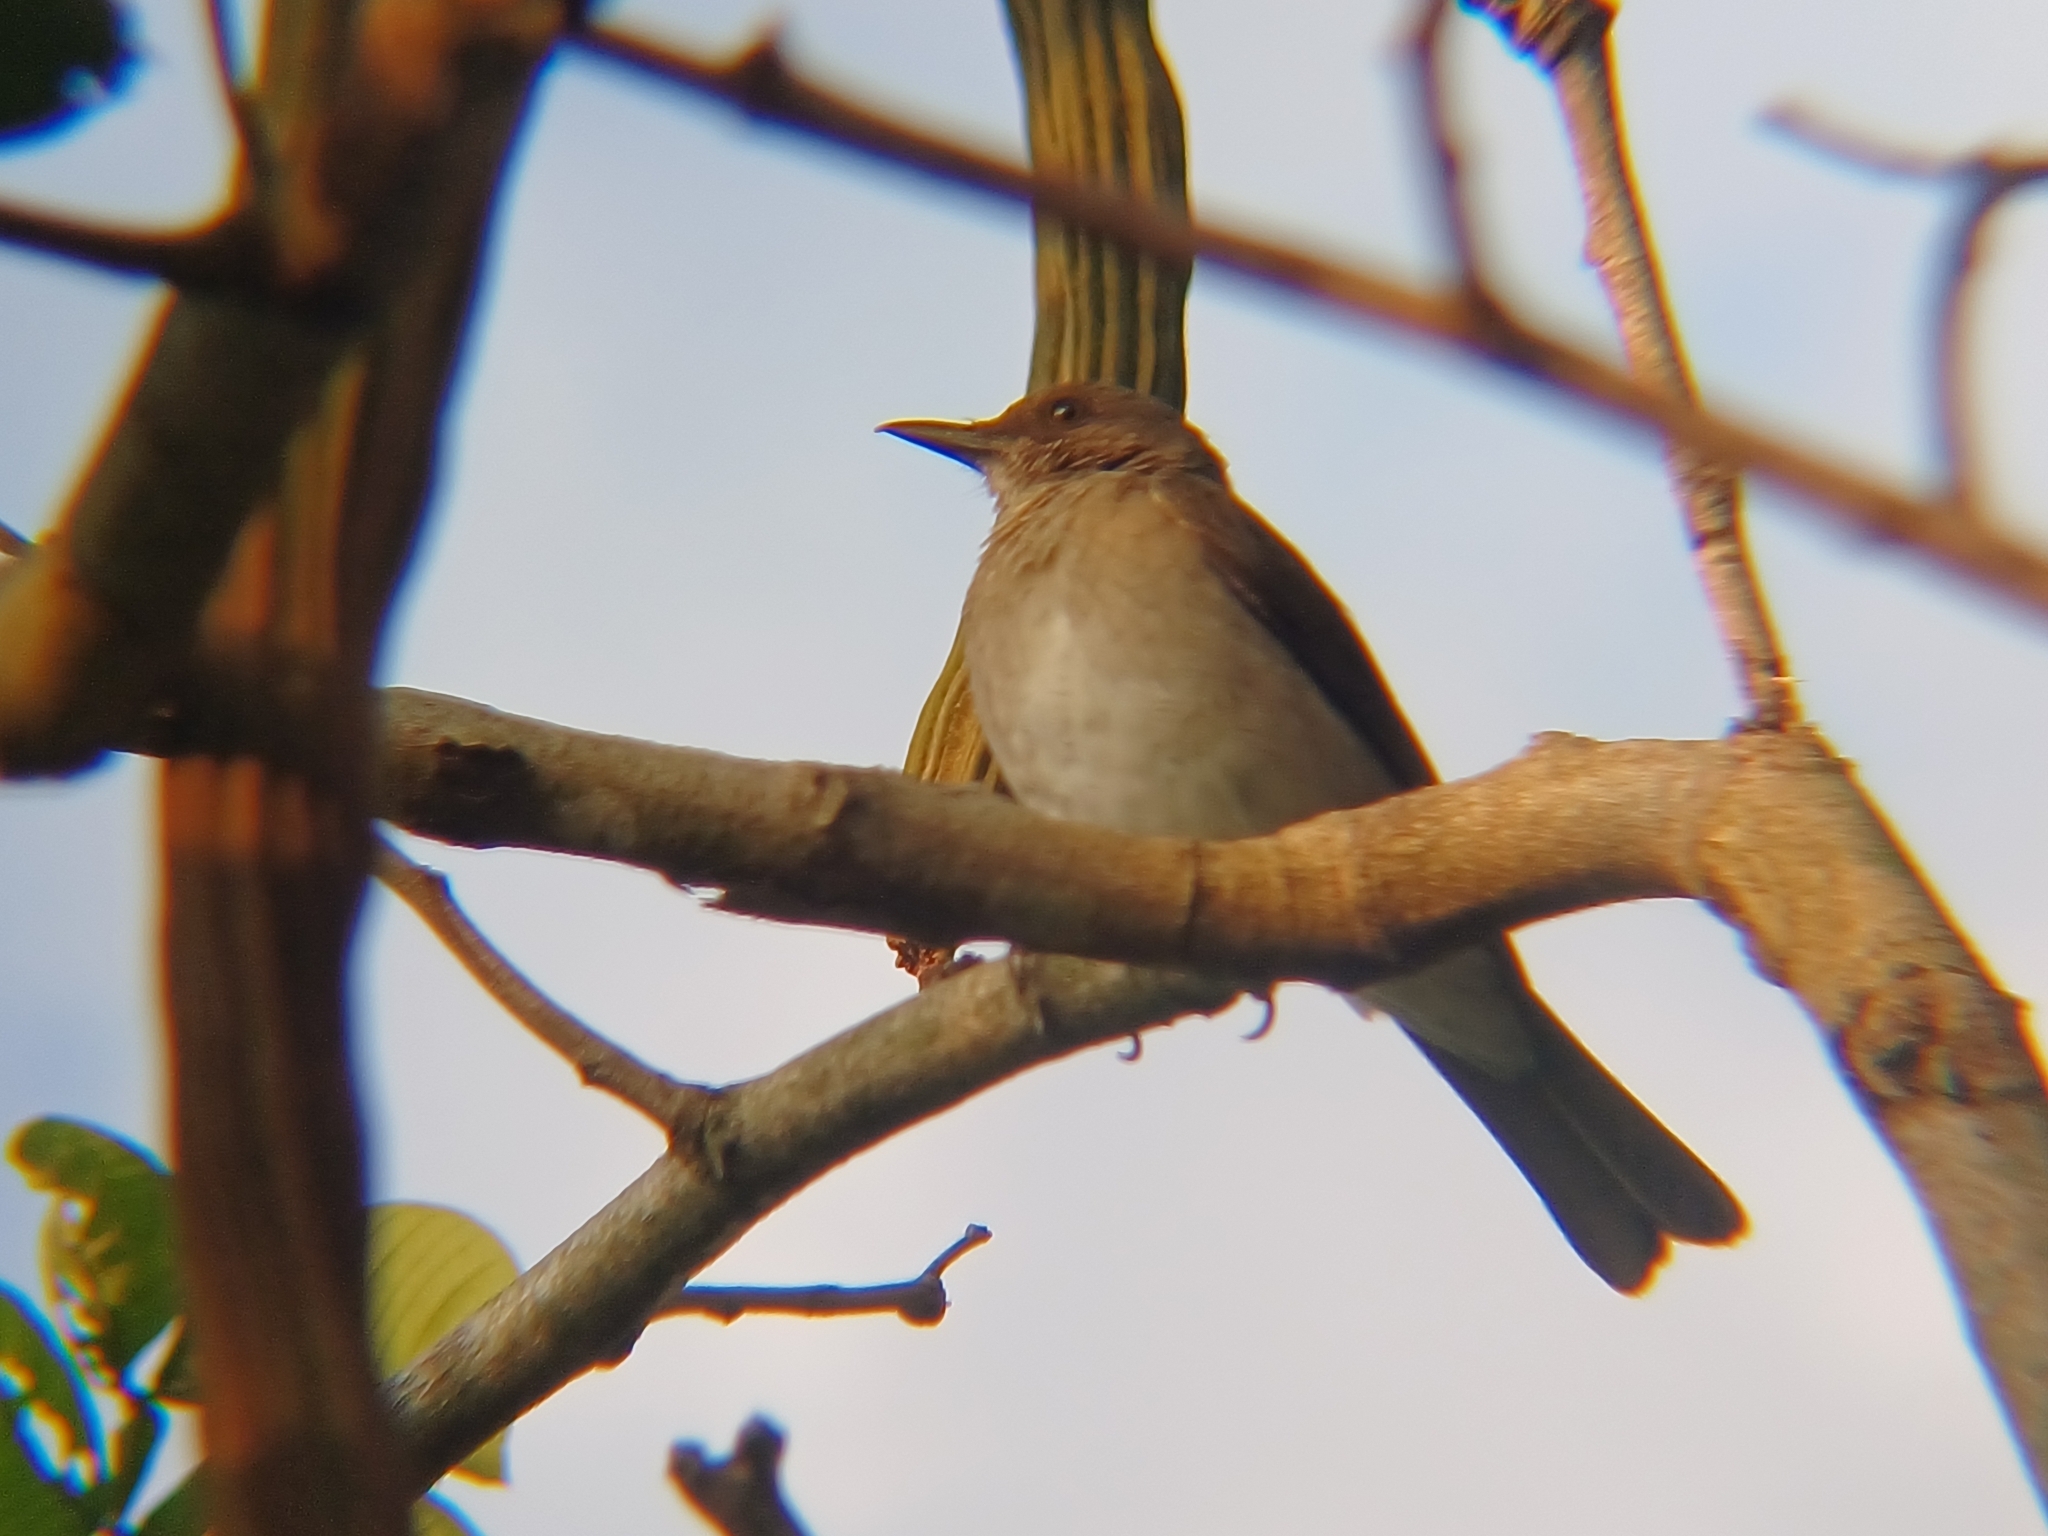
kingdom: Animalia
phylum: Chordata
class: Aves
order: Passeriformes
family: Turdidae
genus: Turdus
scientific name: Turdus ignobilis
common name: Black-billed thrush
